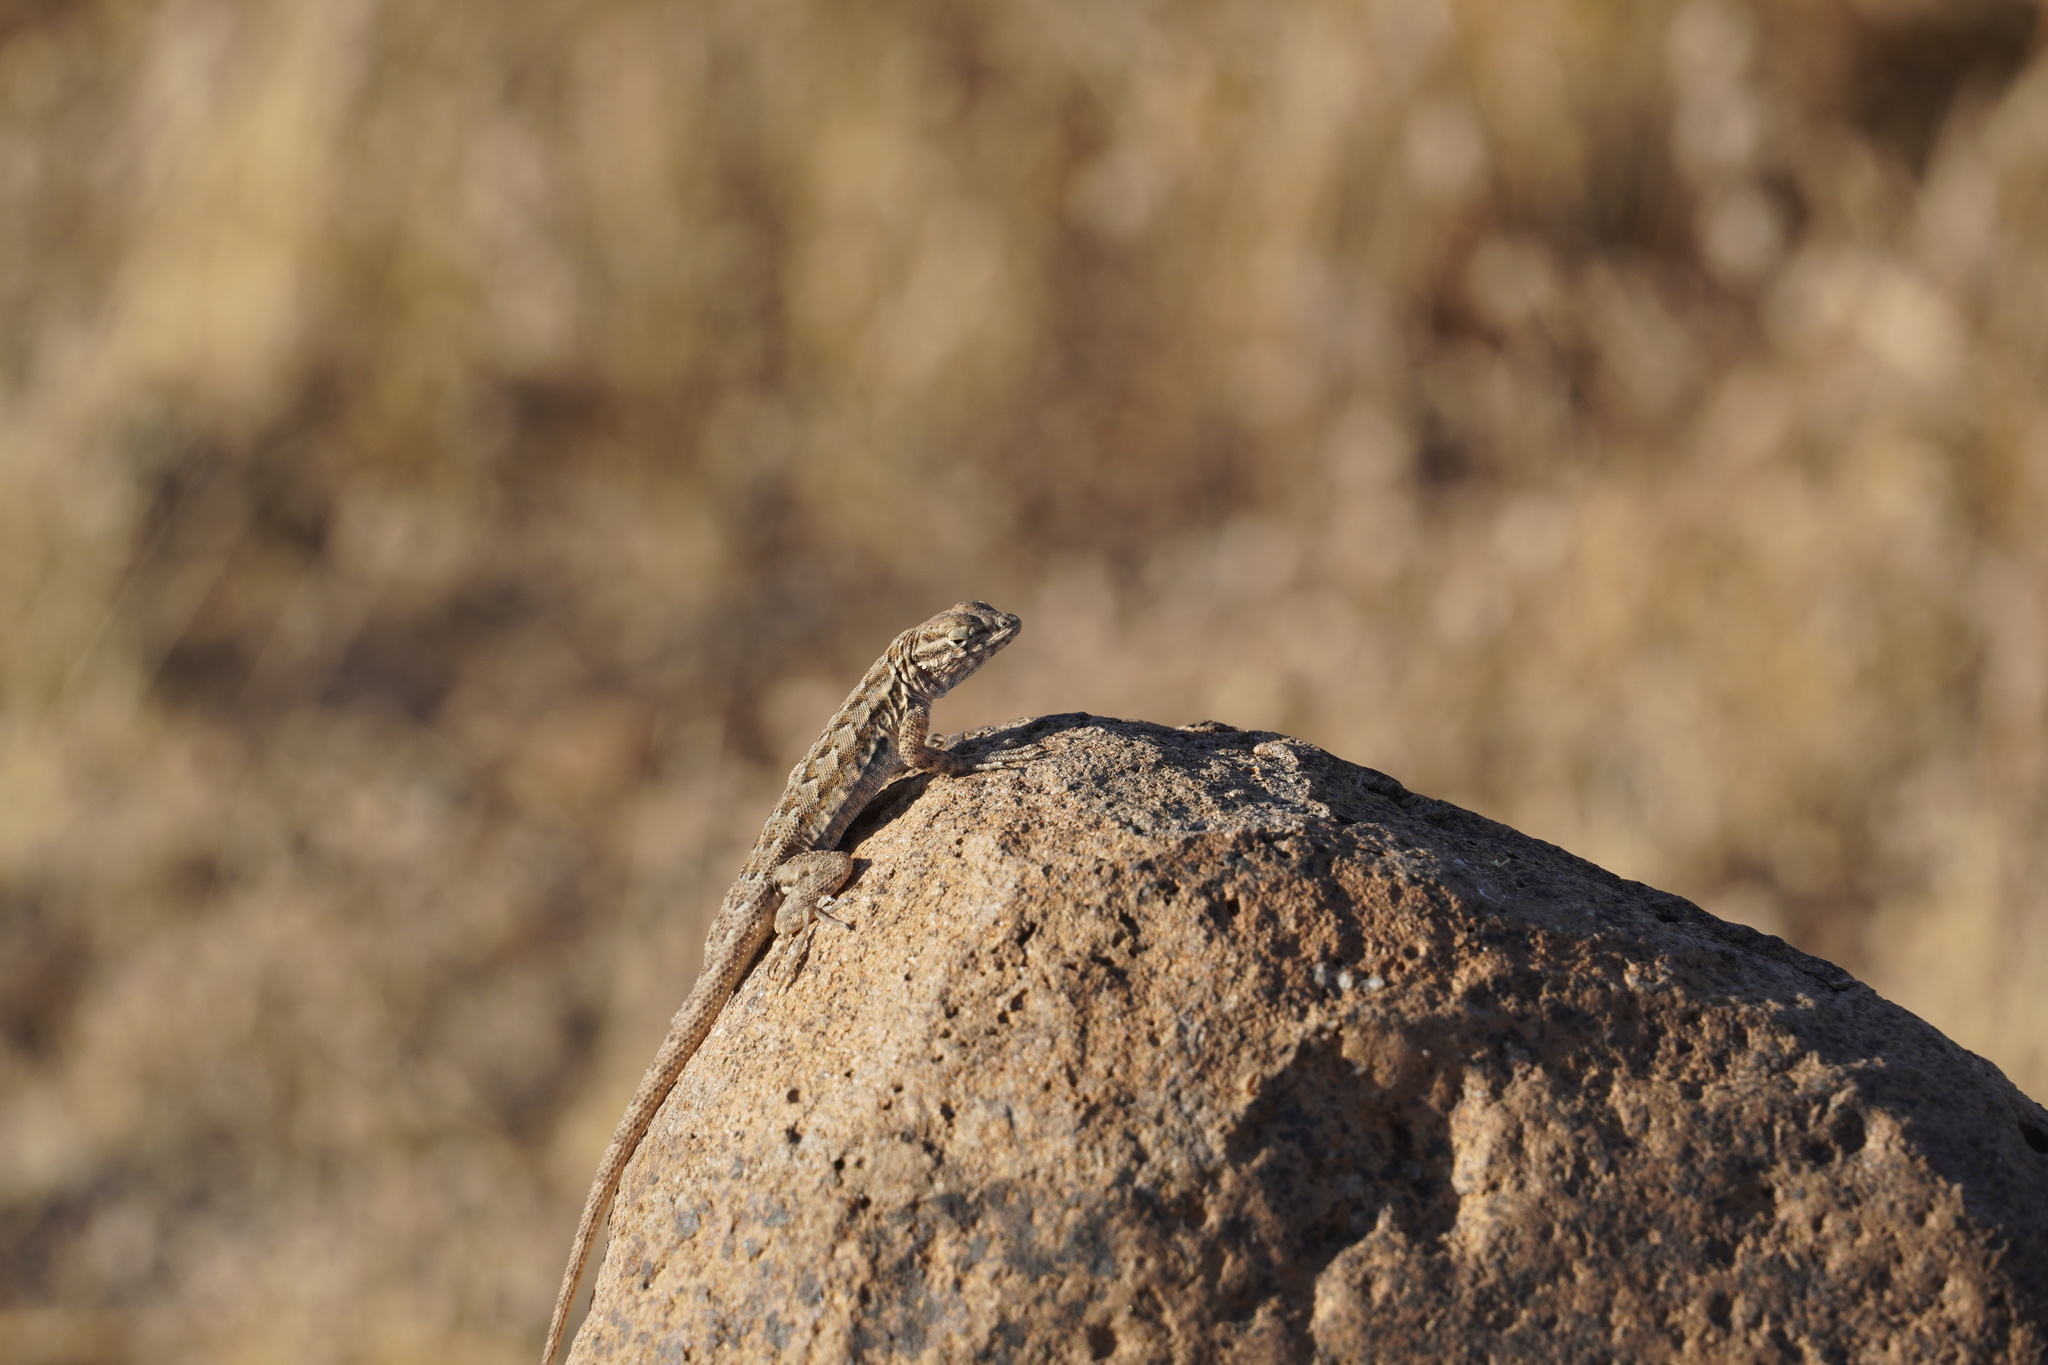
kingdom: Animalia
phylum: Chordata
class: Squamata
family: Phrynosomatidae
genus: Uta
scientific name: Uta stansburiana
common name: Side-blotched lizard
